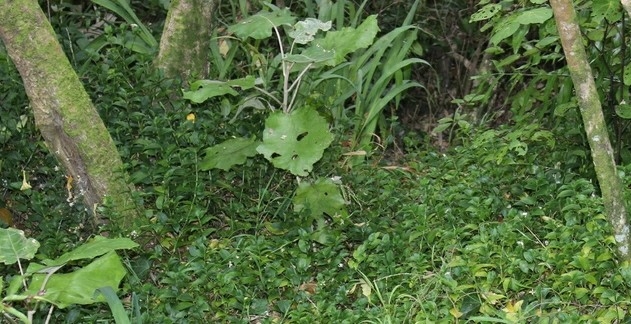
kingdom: Plantae
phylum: Tracheophyta
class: Magnoliopsida
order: Asterales
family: Asteraceae
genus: Brachyglottis
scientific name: Brachyglottis repanda
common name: Hedge ragwort
